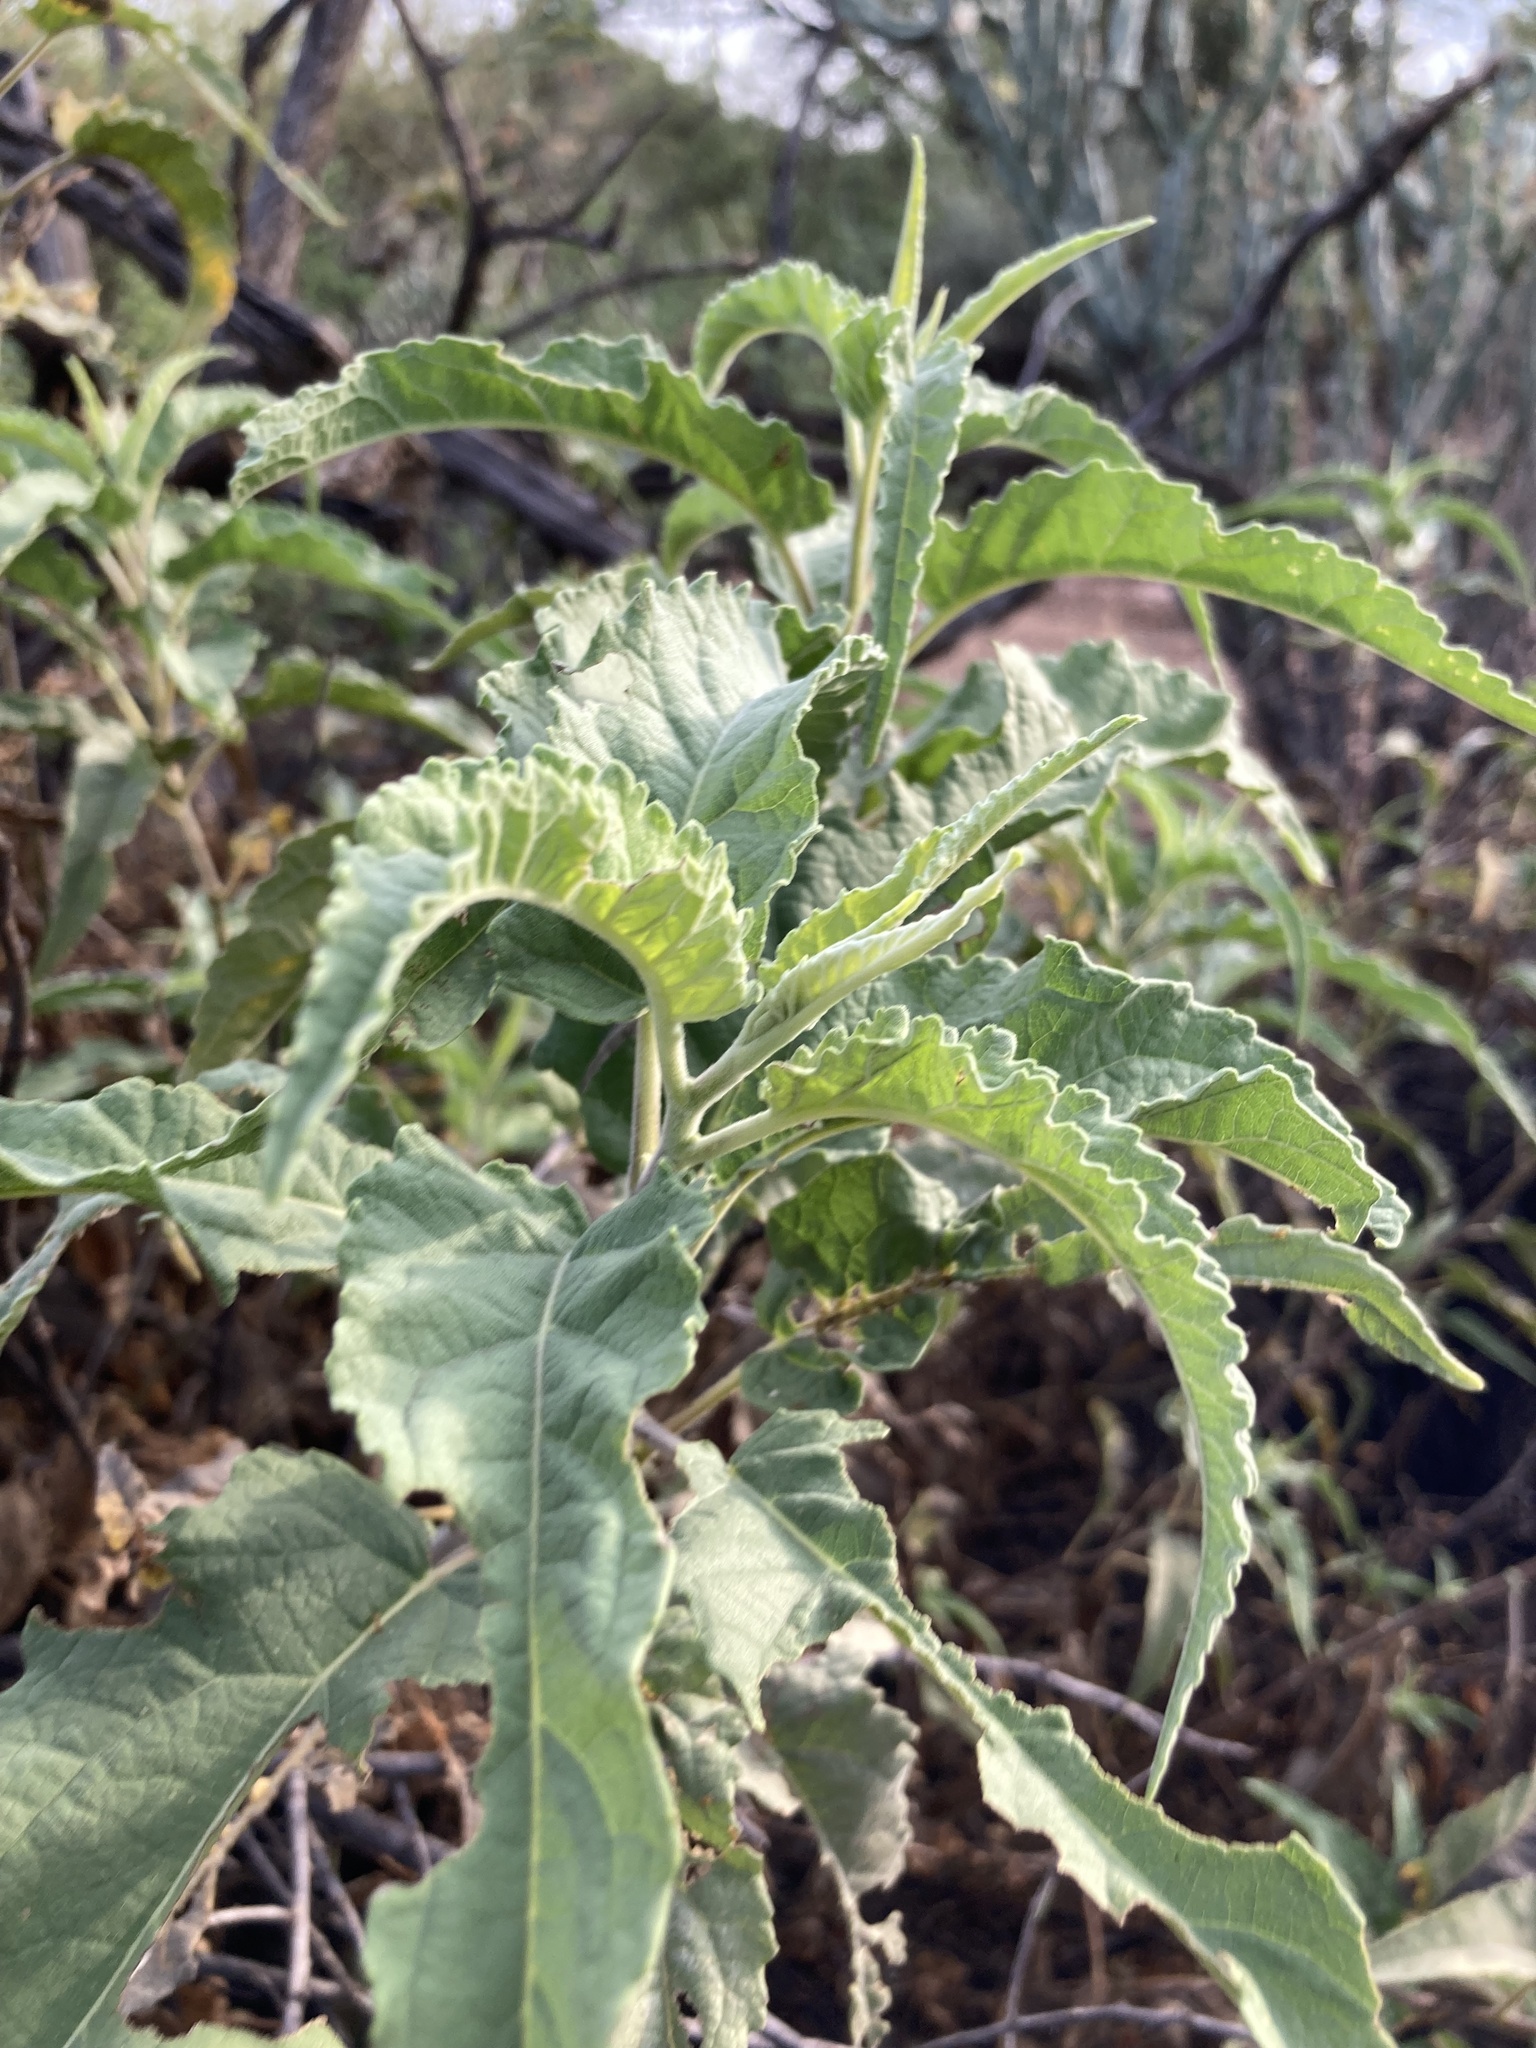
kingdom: Plantae
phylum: Tracheophyta
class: Magnoliopsida
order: Asterales
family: Asteraceae
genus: Ambrosia
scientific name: Ambrosia ambrosioides
